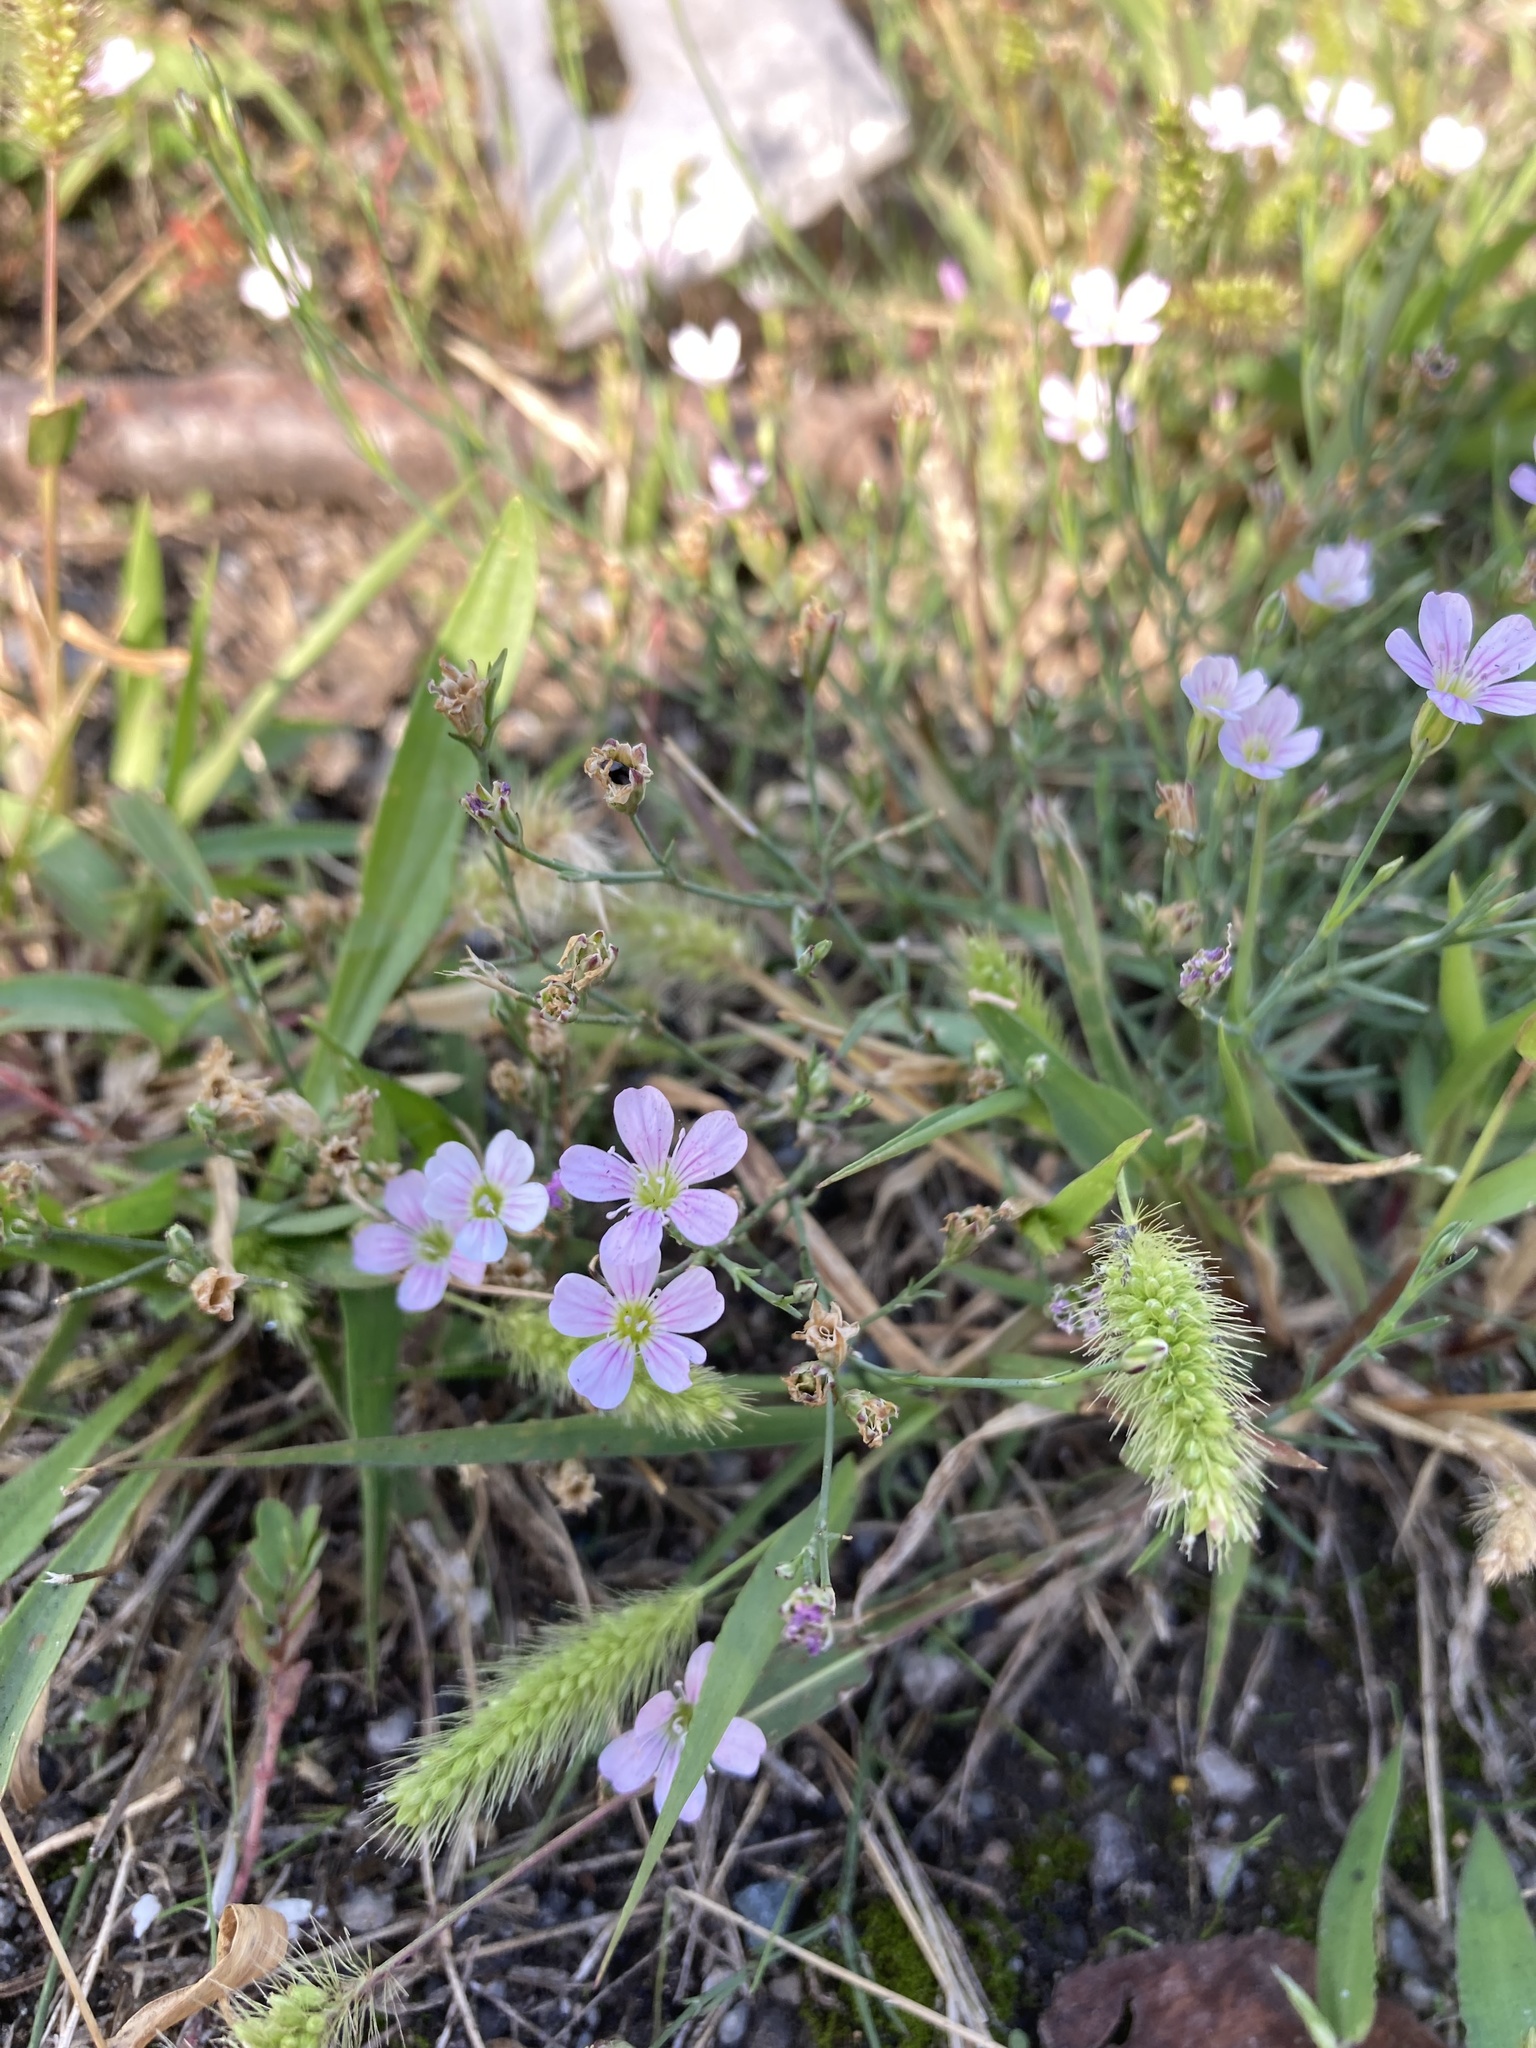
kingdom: Plantae
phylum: Tracheophyta
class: Magnoliopsida
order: Caryophyllales
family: Caryophyllaceae
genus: Petrorhagia
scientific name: Petrorhagia saxifraga
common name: Tunicflower
